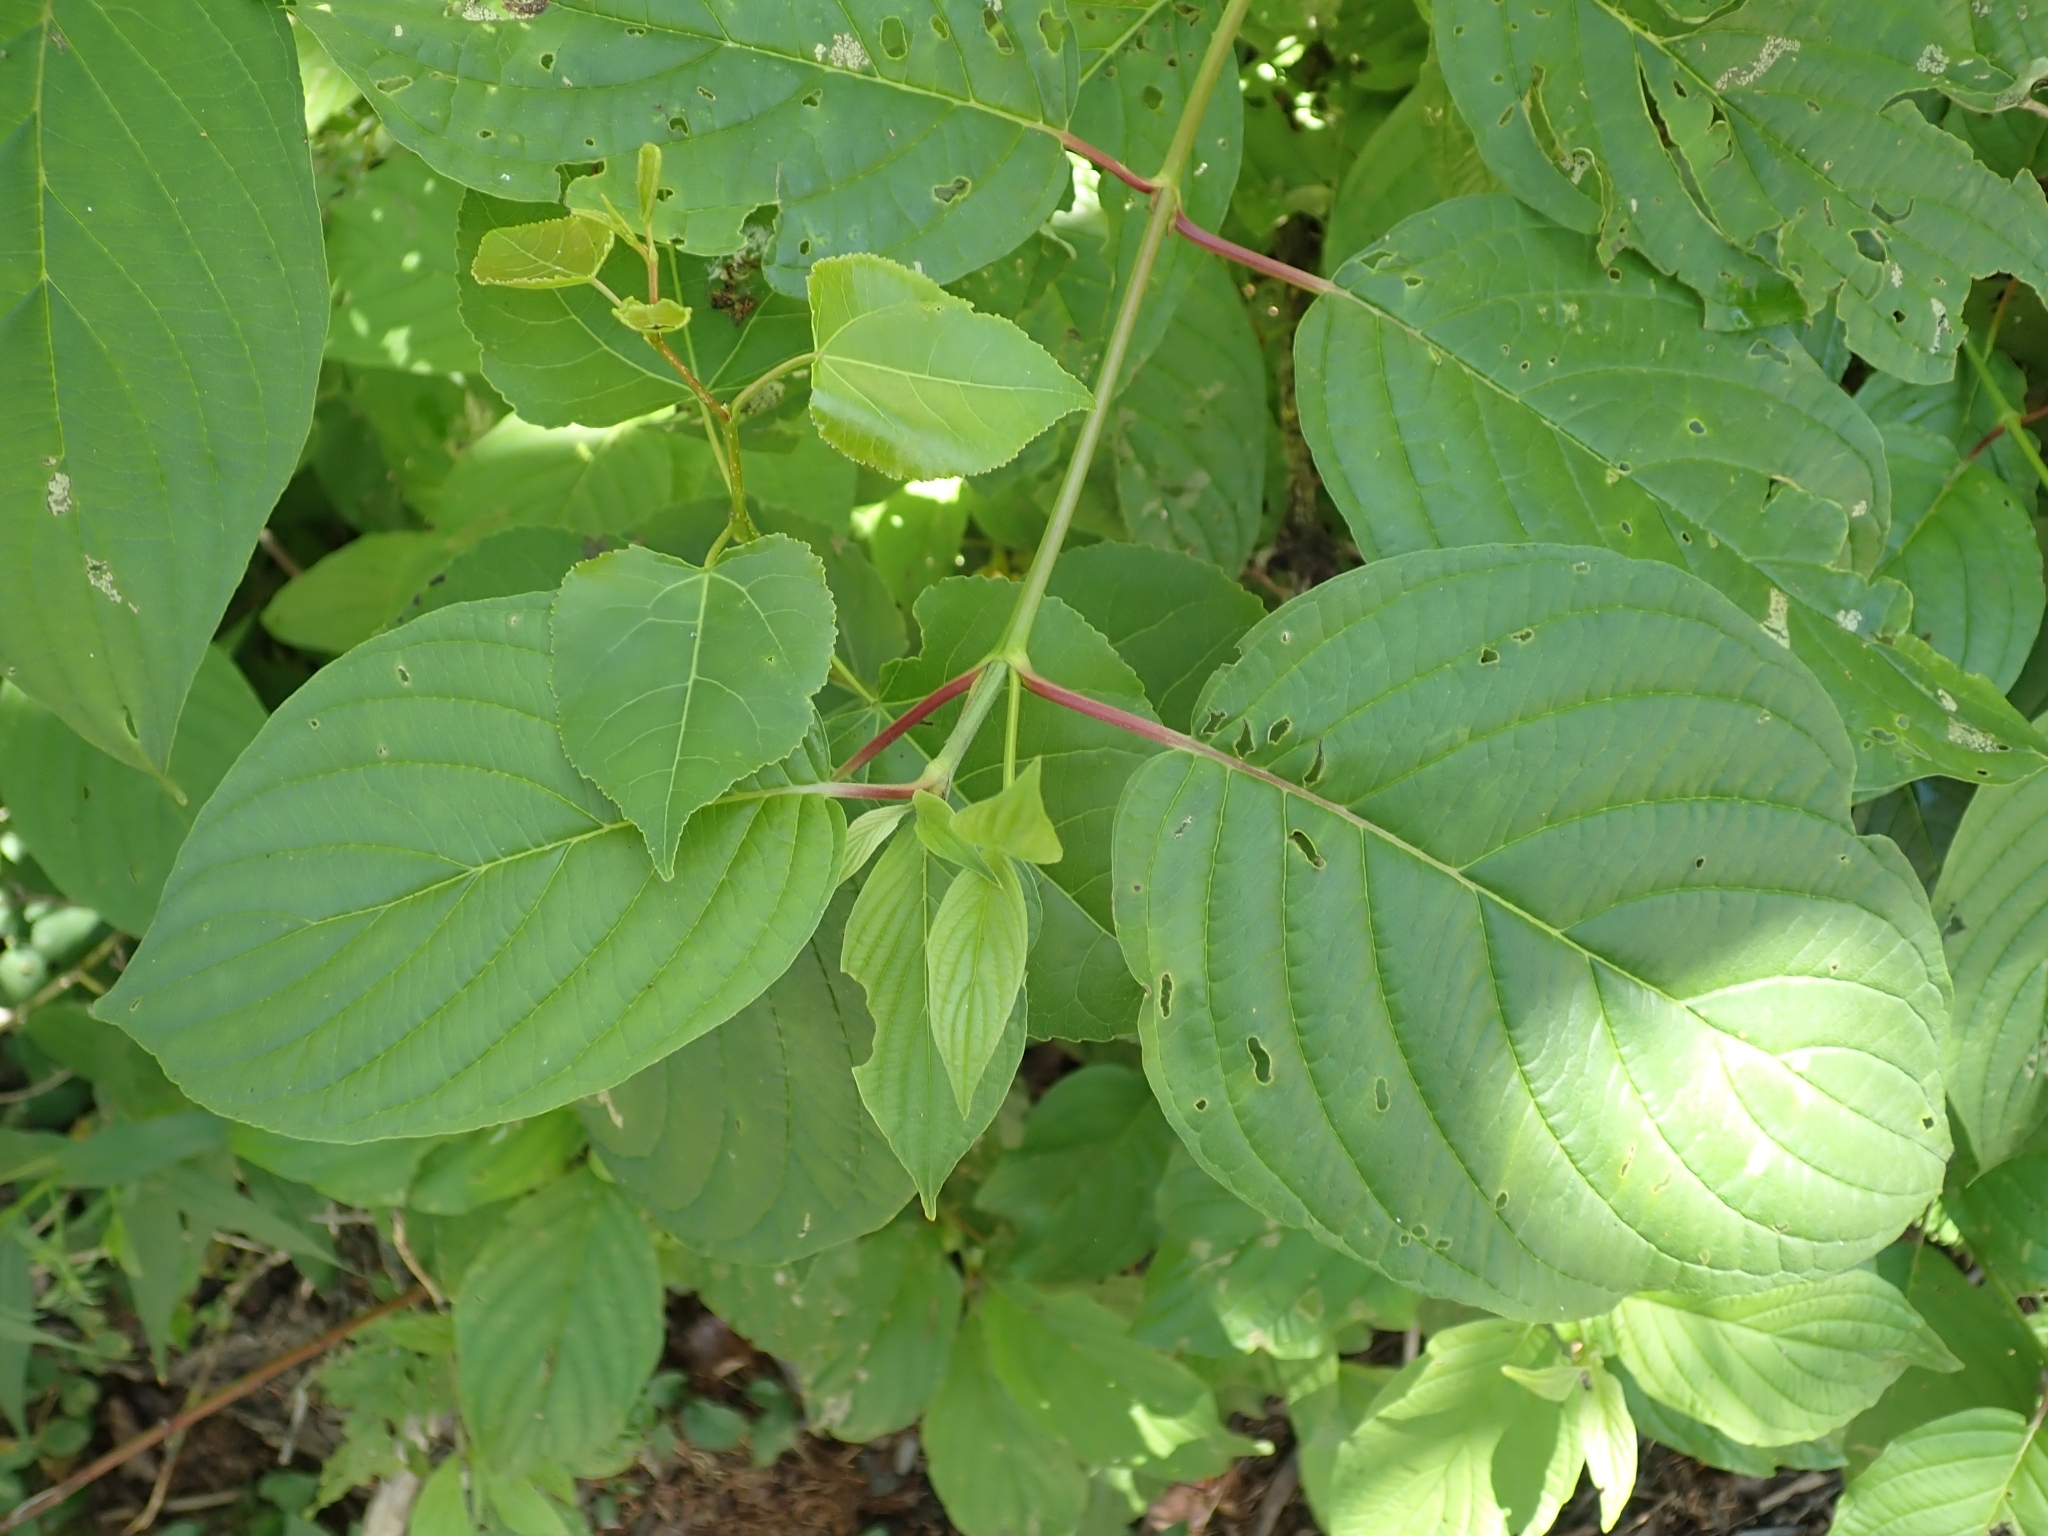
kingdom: Plantae
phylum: Tracheophyta
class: Magnoliopsida
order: Cornales
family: Cornaceae
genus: Cornus
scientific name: Cornus sericea
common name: Red-osier dogwood
